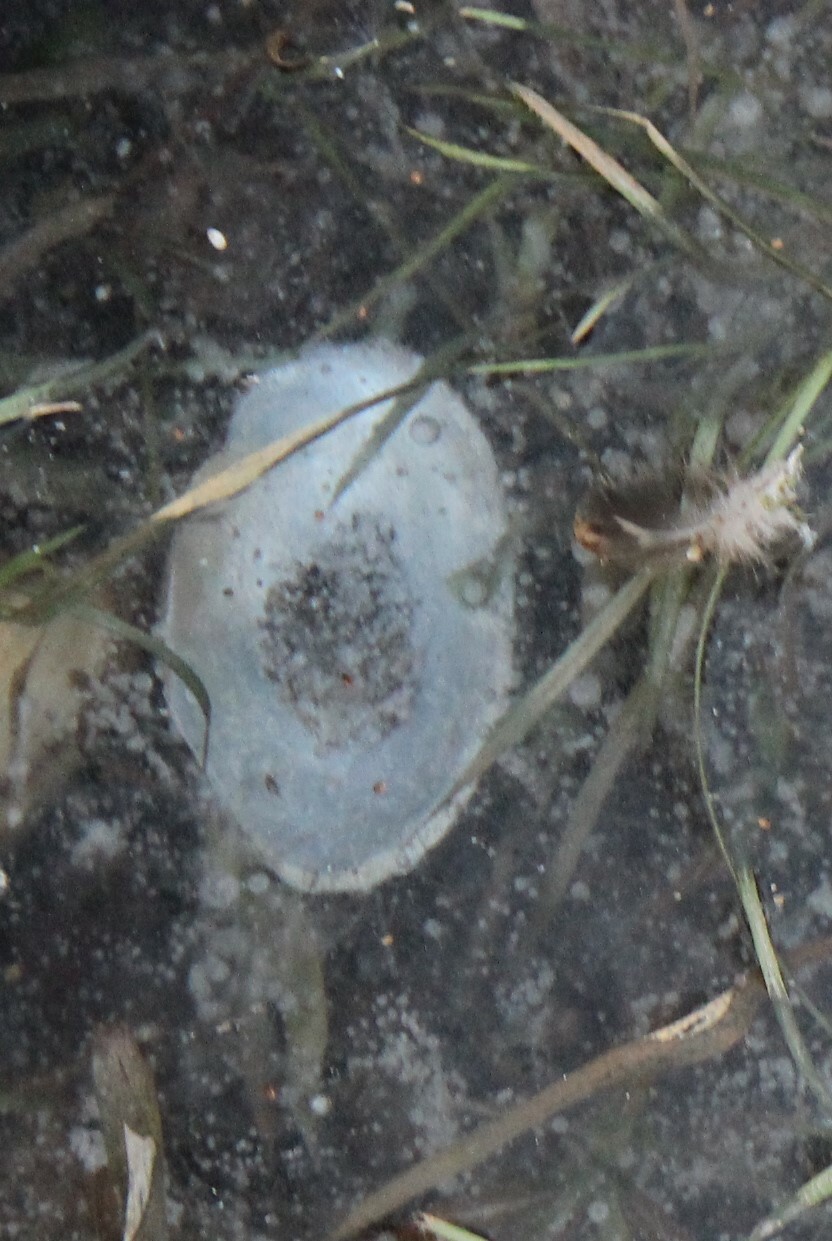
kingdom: Animalia
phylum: Mollusca
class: Bivalvia
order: Unionida
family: Unionidae
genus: Anodonta
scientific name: Anodonta cygnea
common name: Swan mussel
